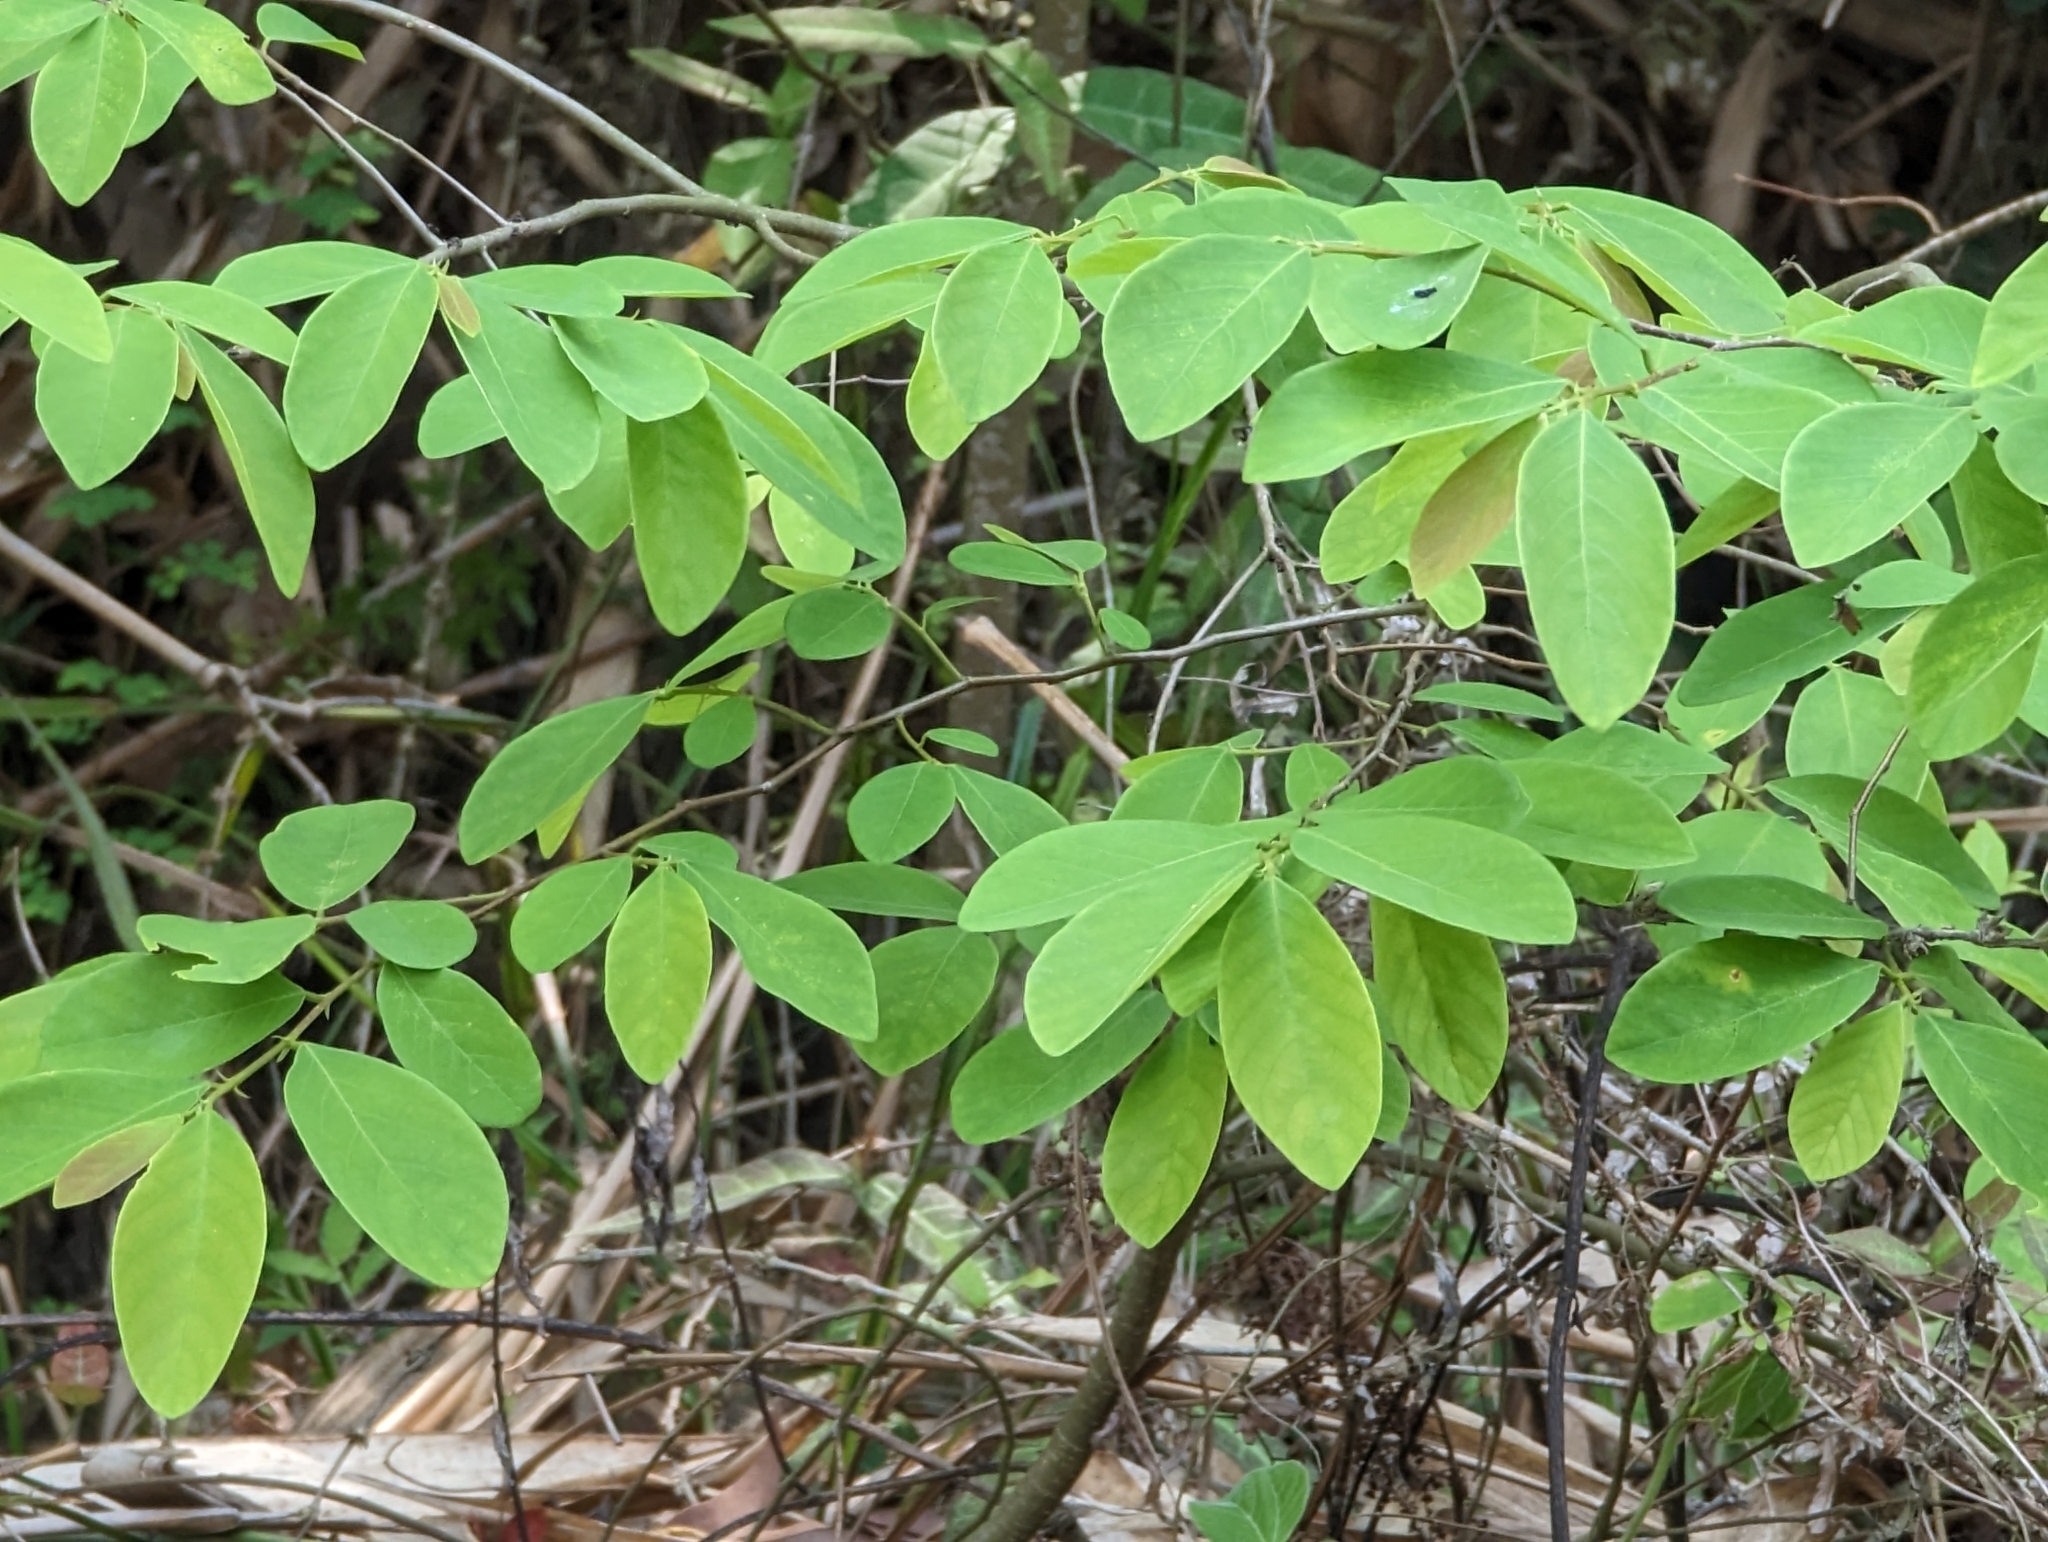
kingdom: Plantae
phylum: Tracheophyta
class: Magnoliopsida
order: Malpighiales
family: Phyllanthaceae
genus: Bridelia
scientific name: Bridelia tomentosa
